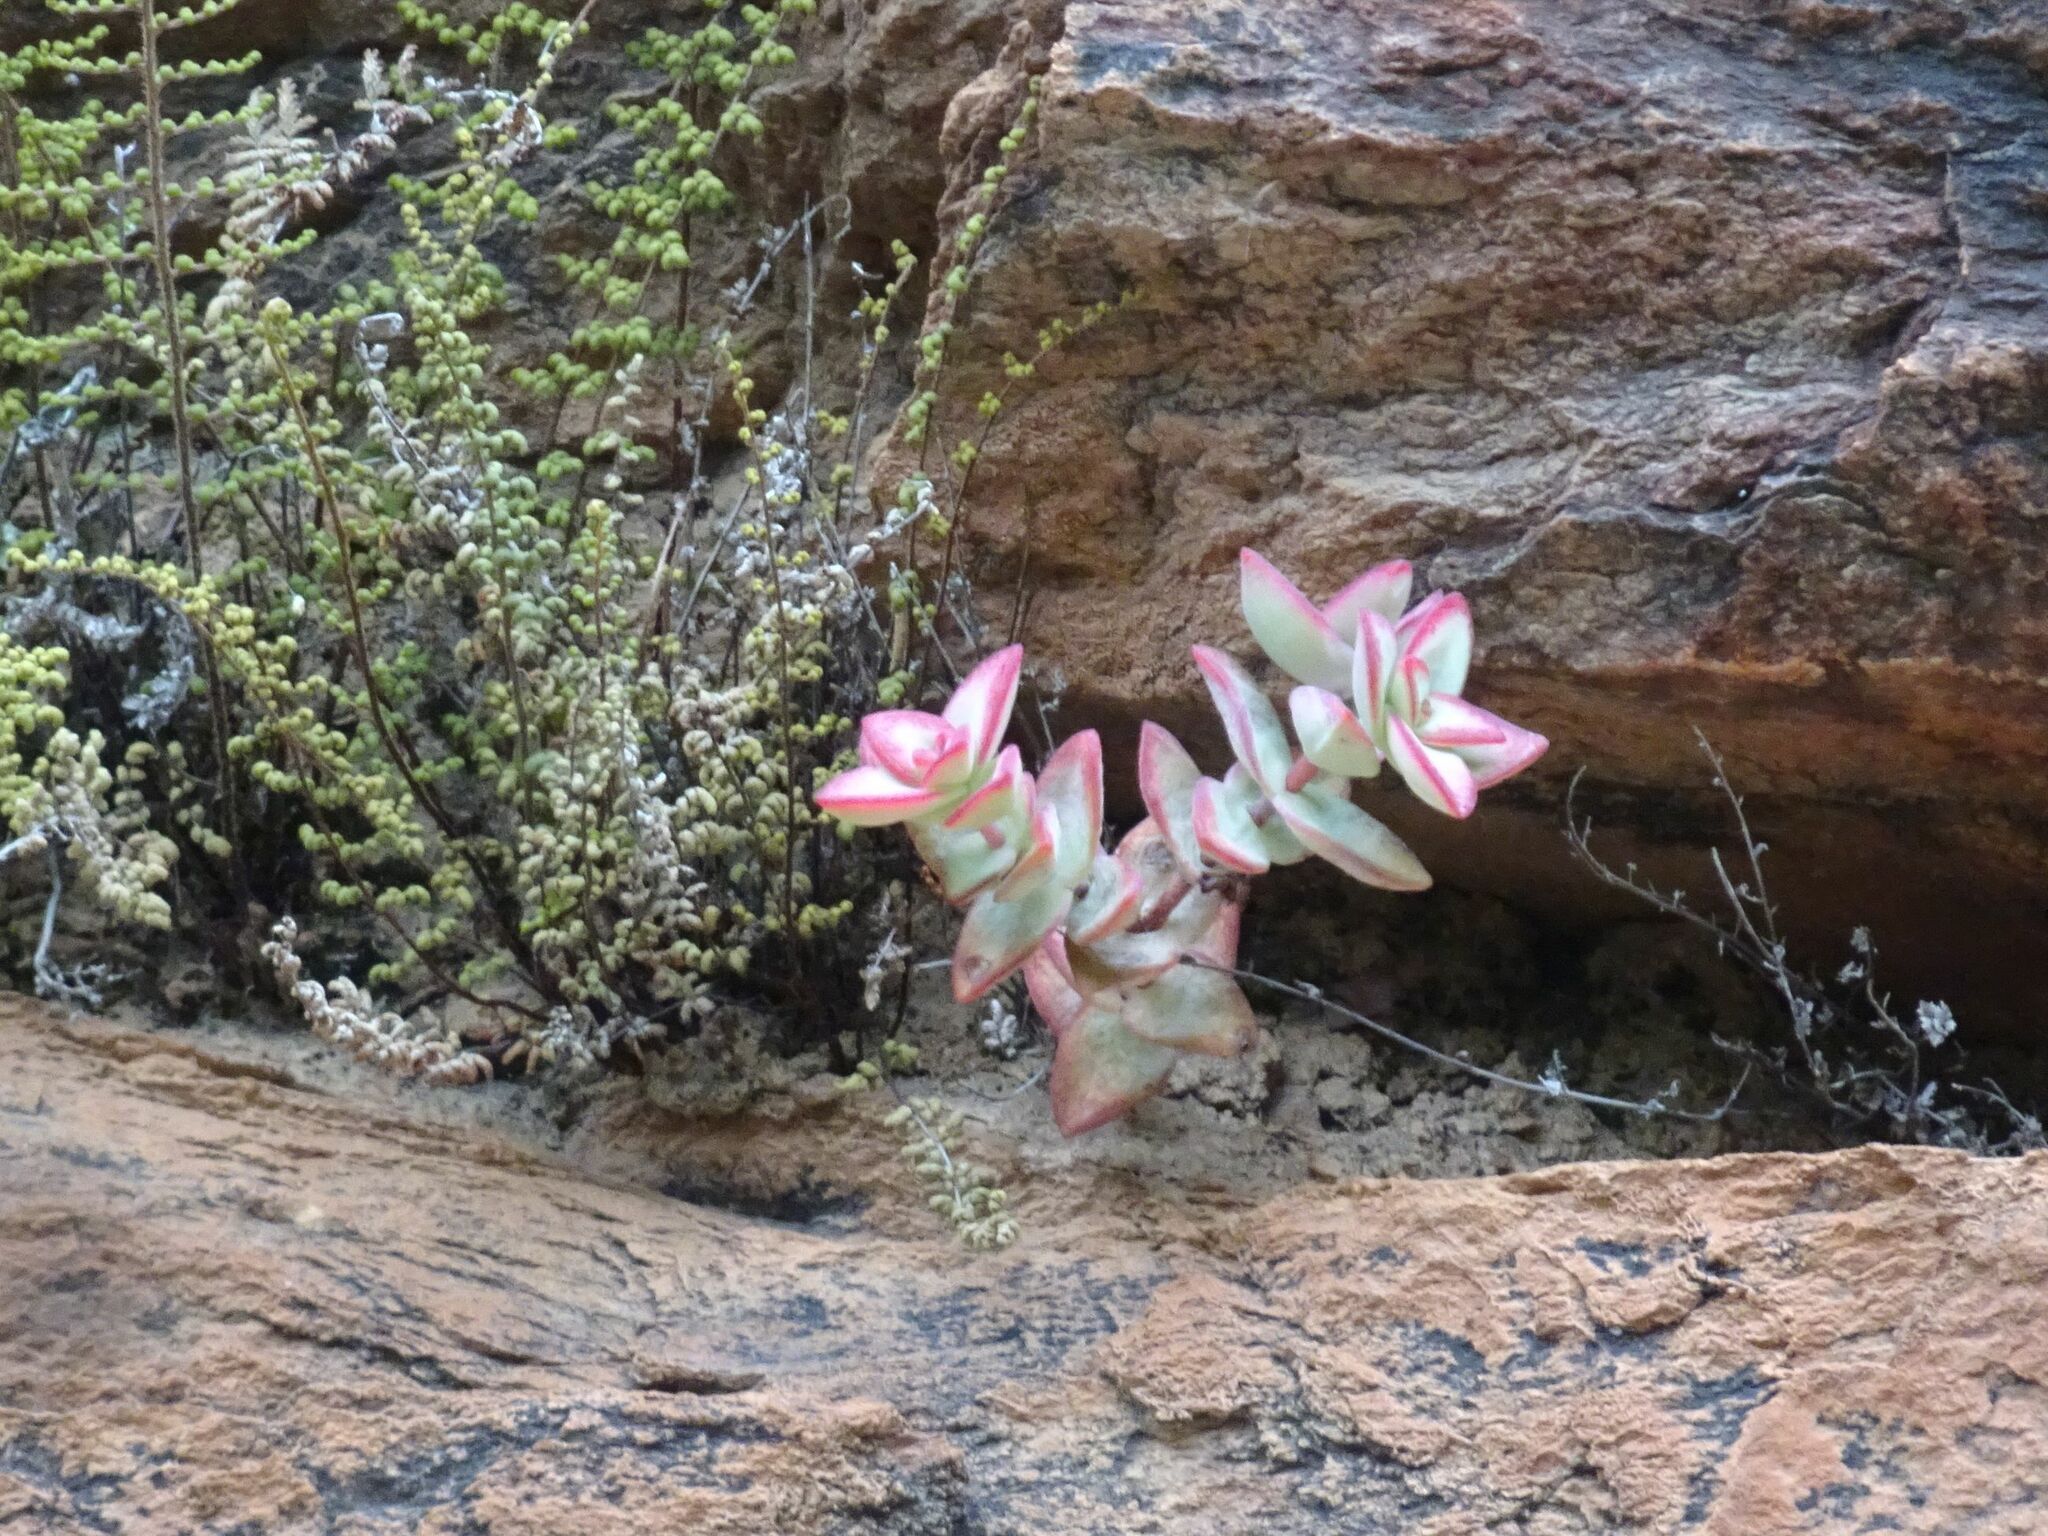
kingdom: Plantae
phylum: Tracheophyta
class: Magnoliopsida
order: Saxifragales
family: Crassulaceae
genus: Crassula
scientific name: Crassula rupestris
